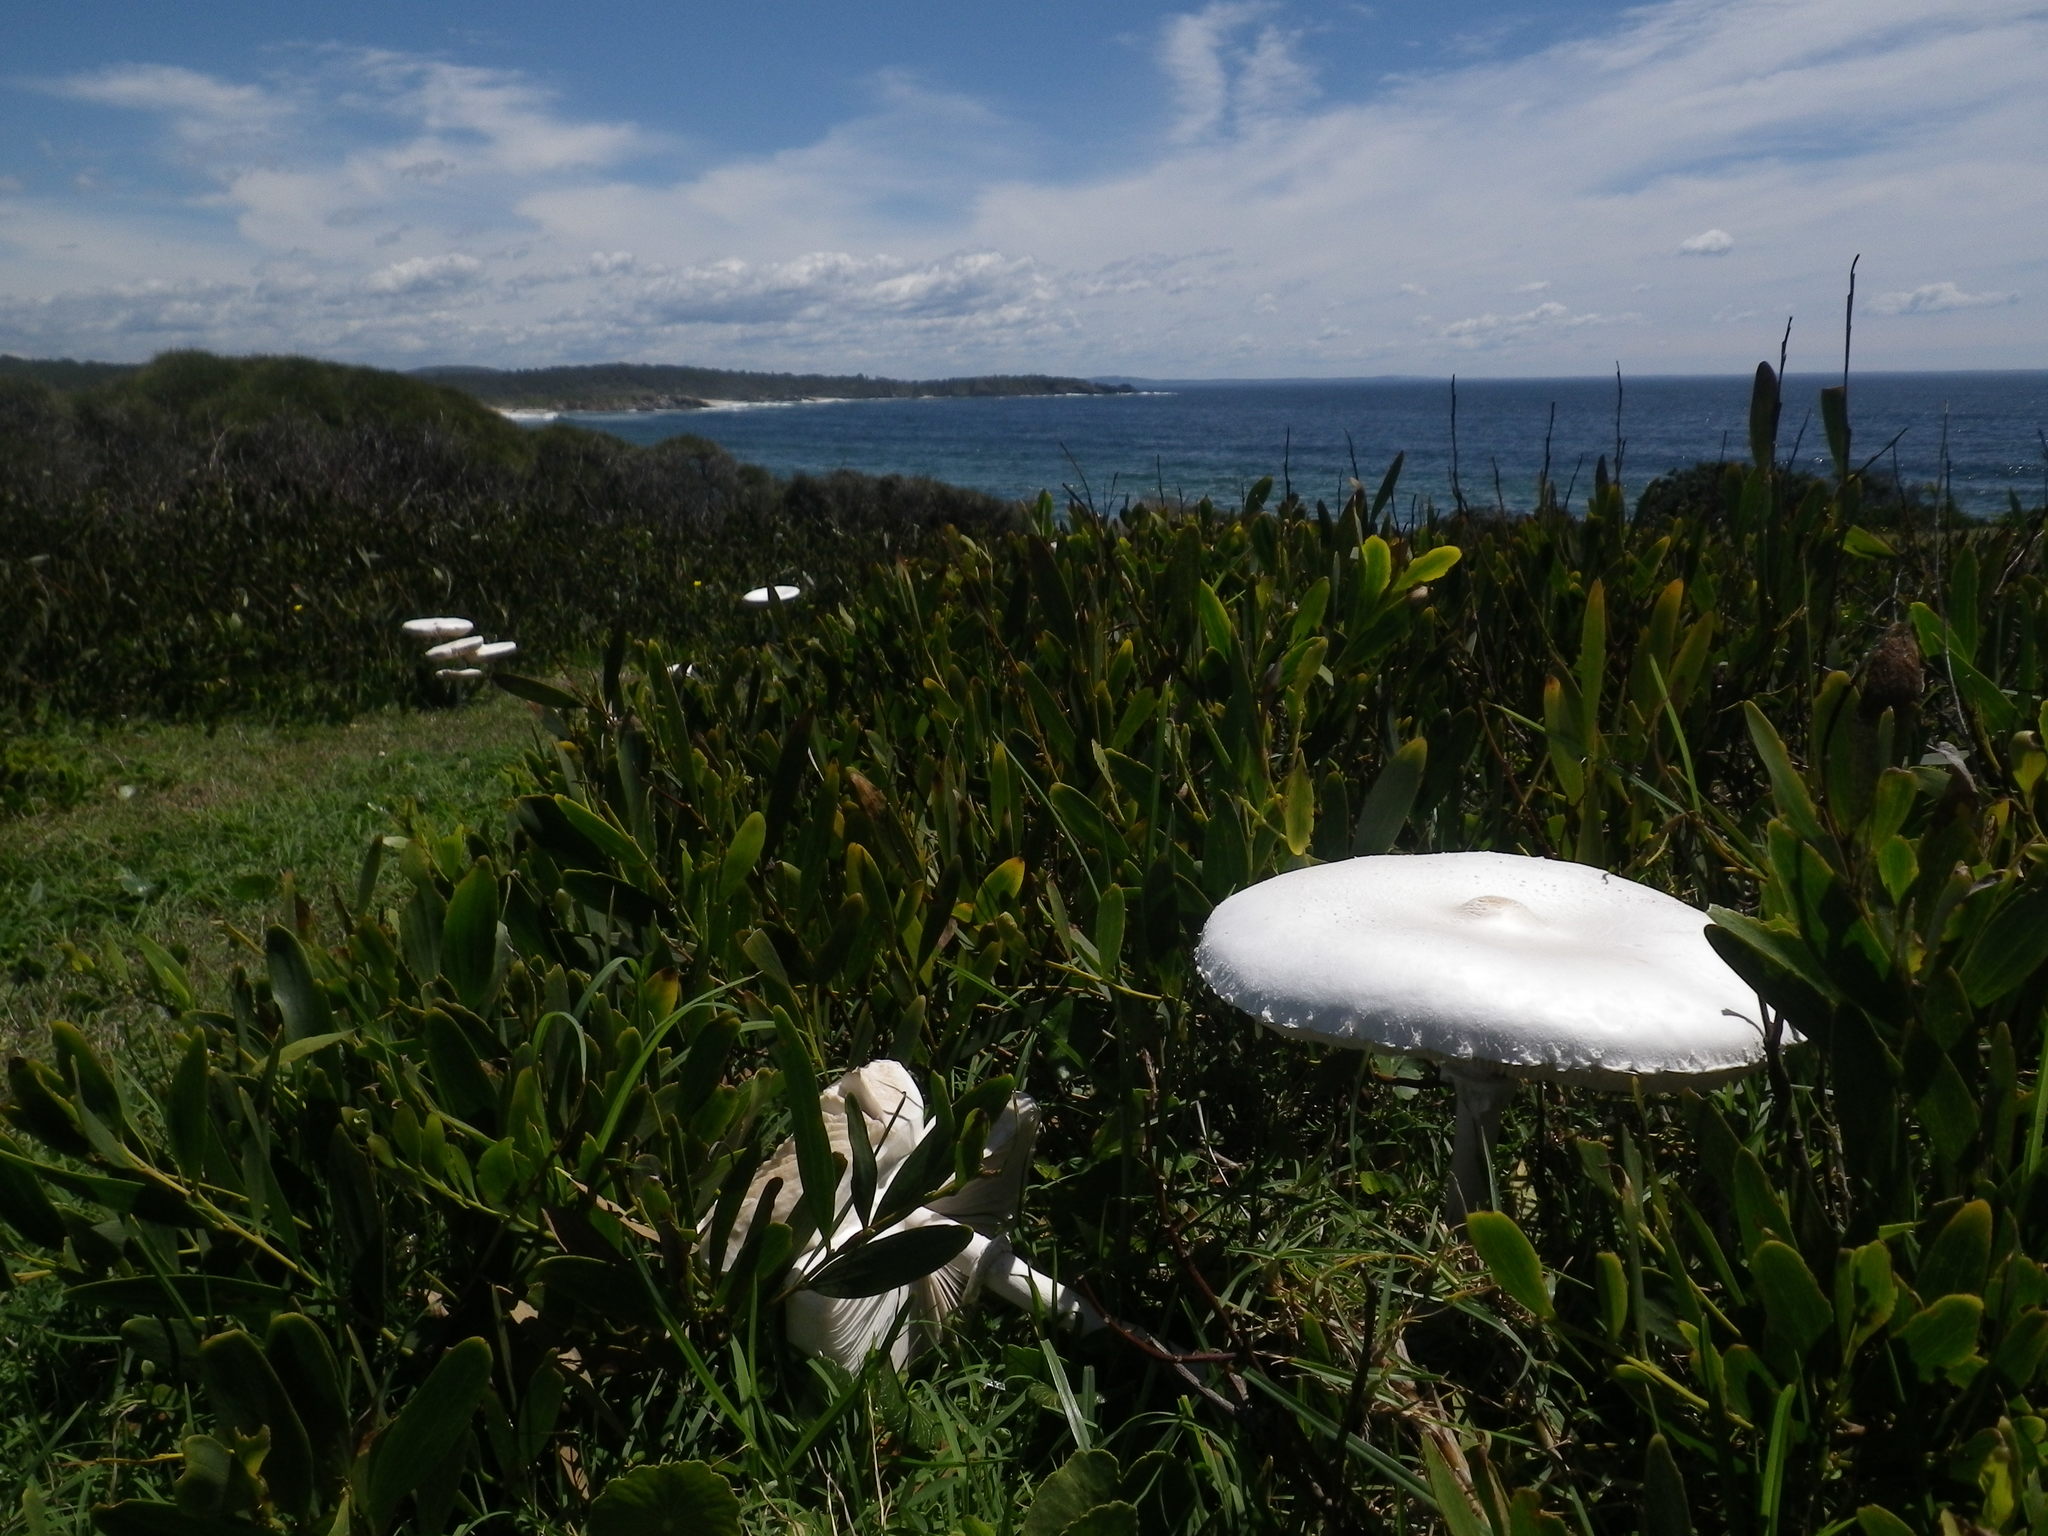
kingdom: Fungi
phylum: Basidiomycota
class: Agaricomycetes
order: Agaricales
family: Agaricaceae
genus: Macrolepiota
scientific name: Macrolepiota dolichaula
